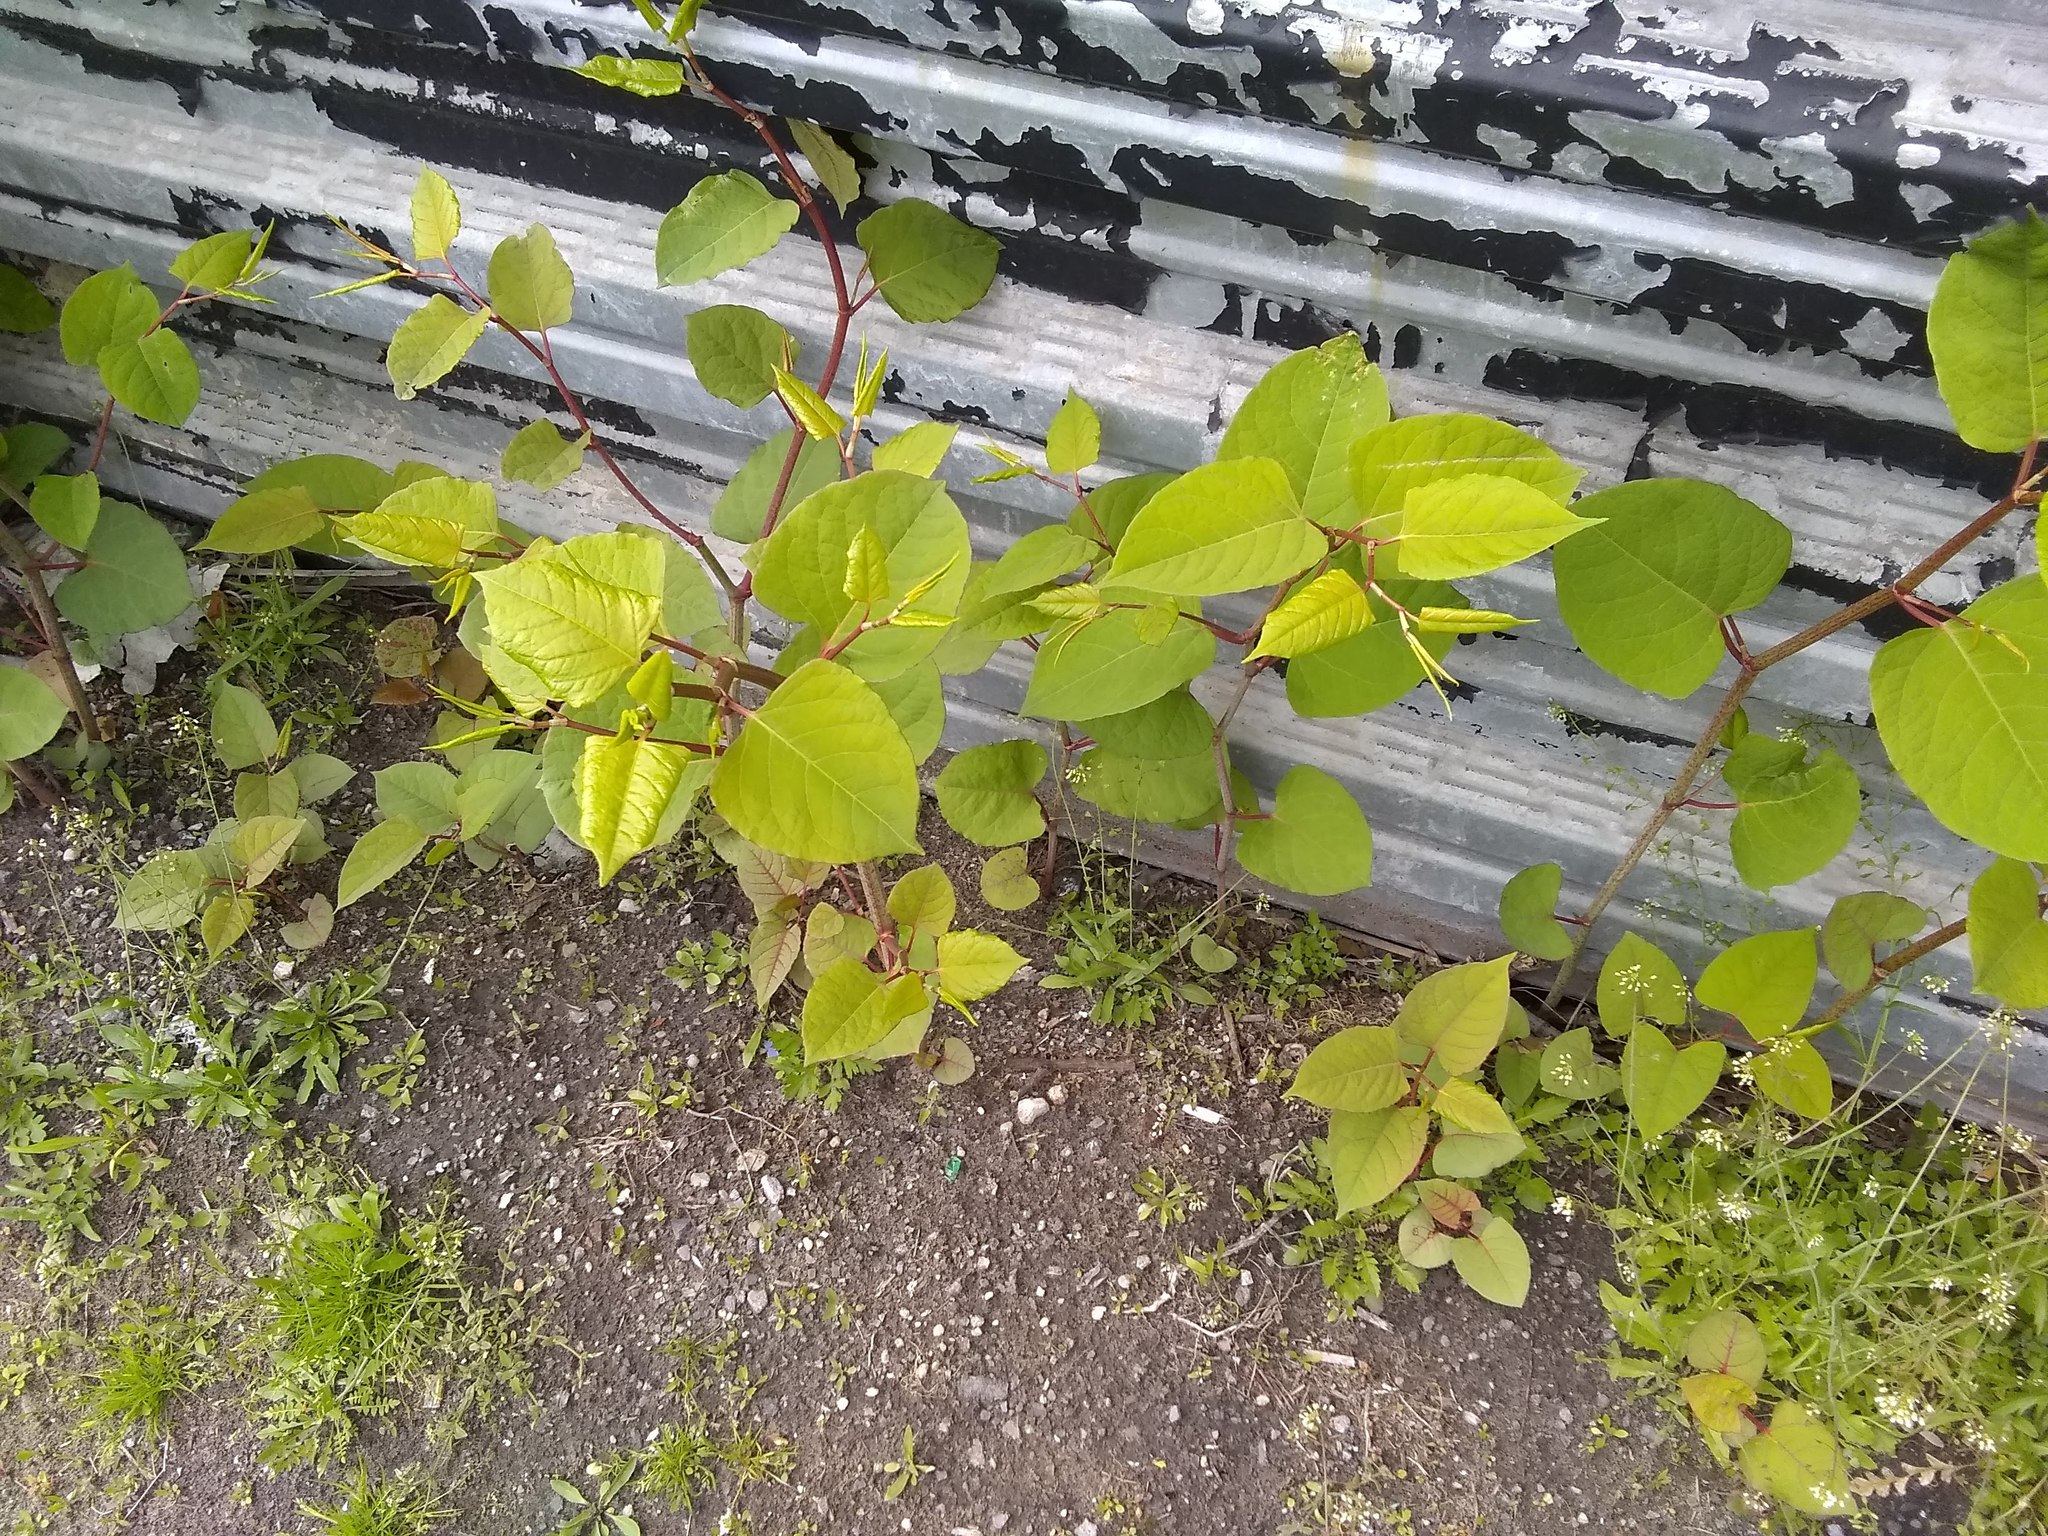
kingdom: Plantae
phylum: Tracheophyta
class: Magnoliopsida
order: Caryophyllales
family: Polygonaceae
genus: Reynoutria
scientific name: Reynoutria japonica
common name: Japanese knotweed
